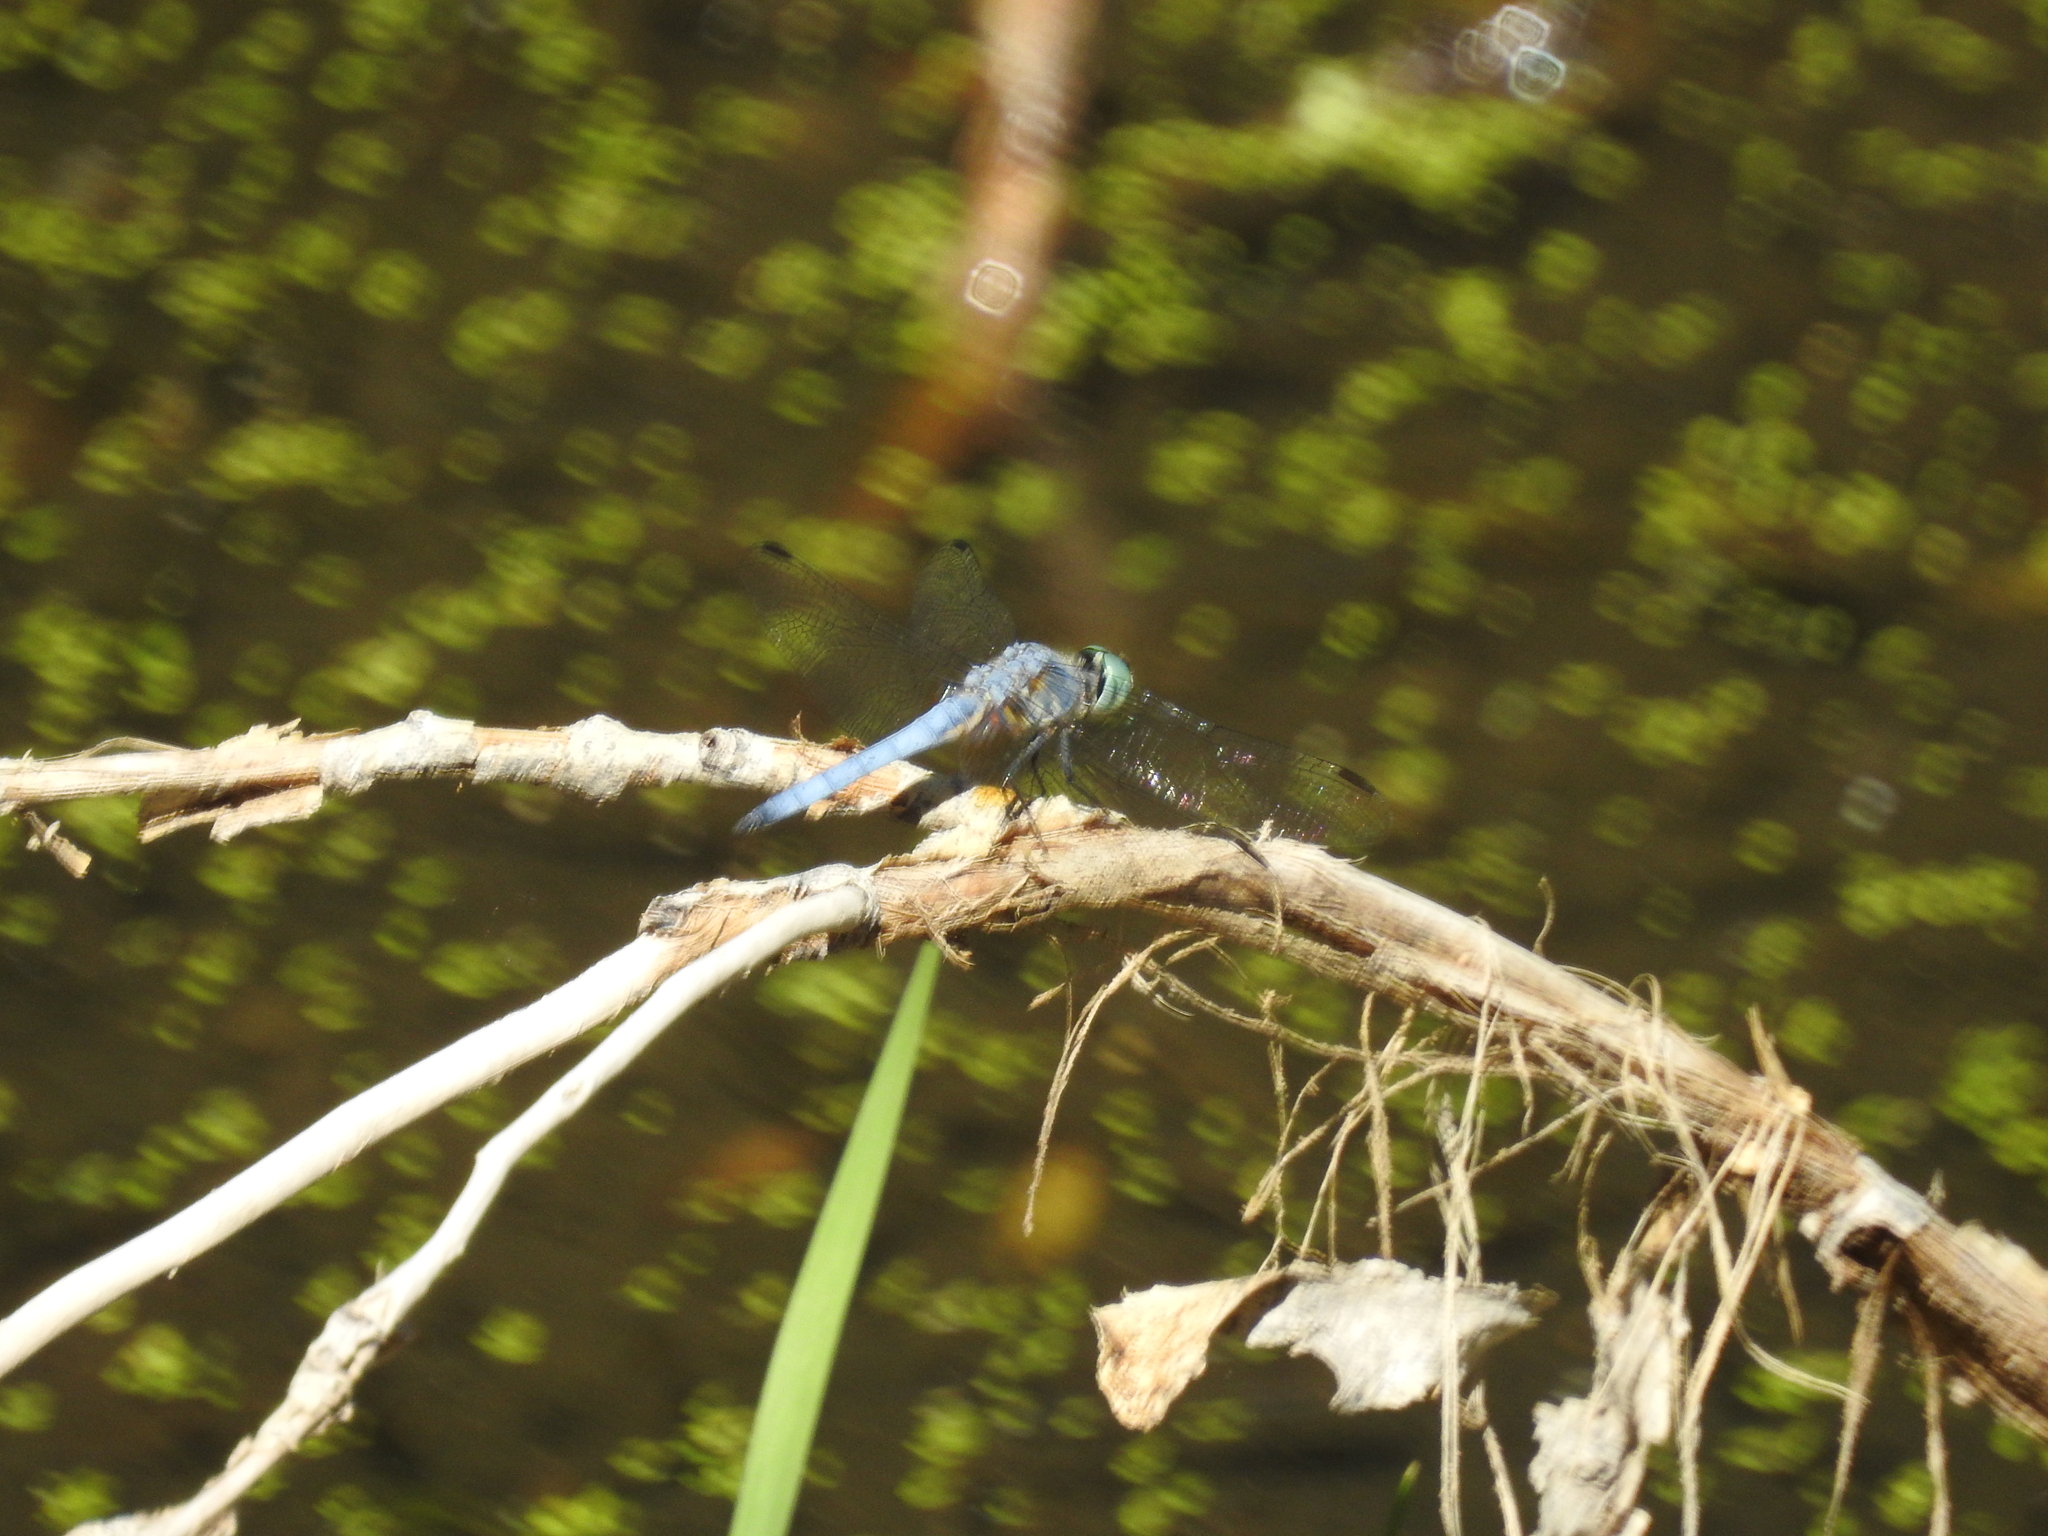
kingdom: Animalia
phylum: Arthropoda
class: Insecta
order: Odonata
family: Libellulidae
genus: Pachydiplax
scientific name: Pachydiplax longipennis
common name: Blue dasher
